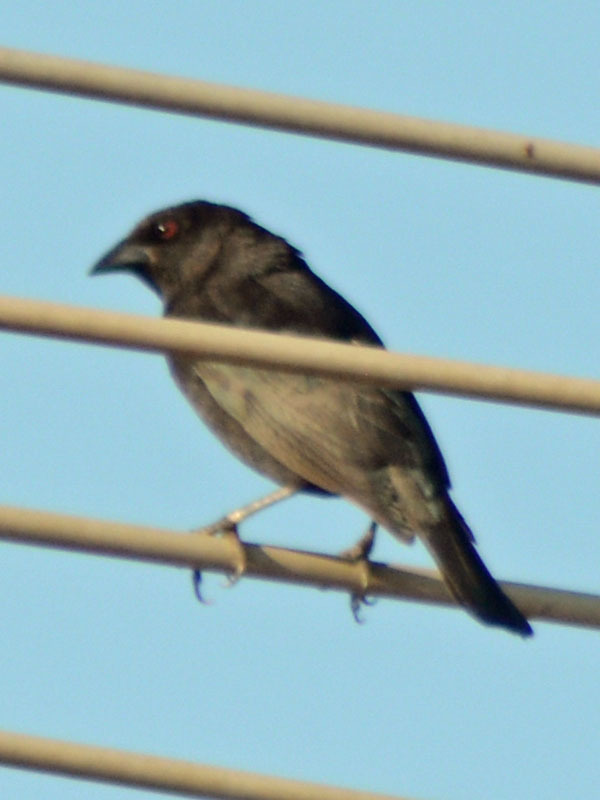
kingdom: Animalia
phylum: Chordata
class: Aves
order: Passeriformes
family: Icteridae
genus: Molothrus
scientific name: Molothrus aeneus
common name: Bronzed cowbird
